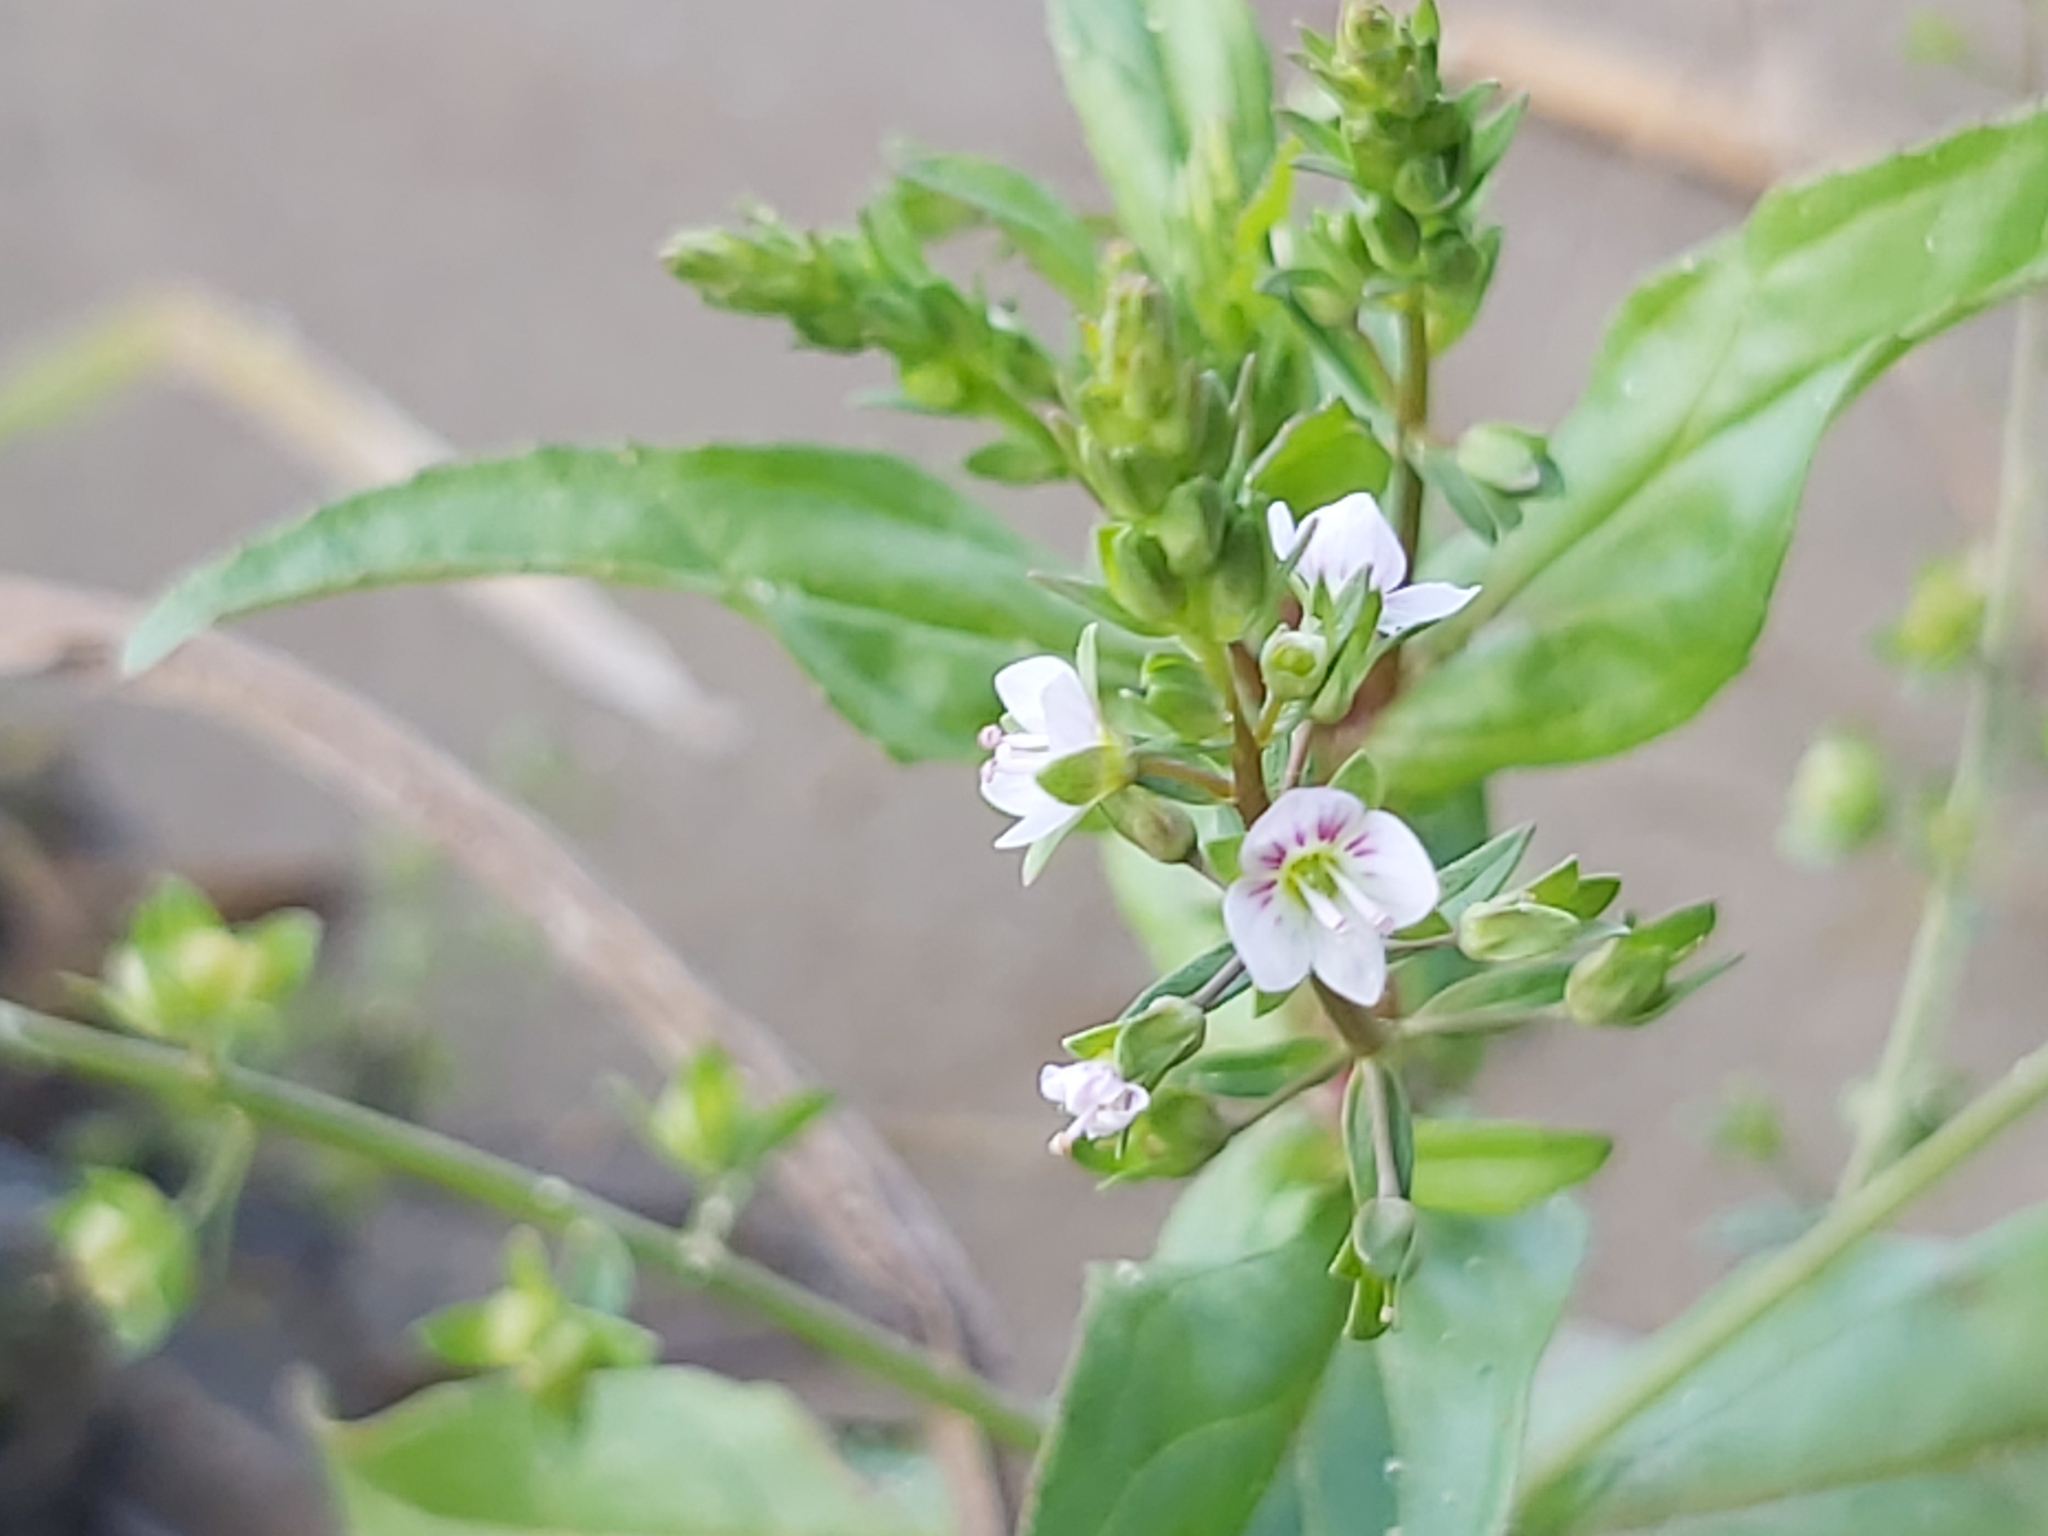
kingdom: Plantae
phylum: Tracheophyta
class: Magnoliopsida
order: Lamiales
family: Plantaginaceae
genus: Veronica
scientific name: Veronica anagallis-aquatica
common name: Water speedwell
